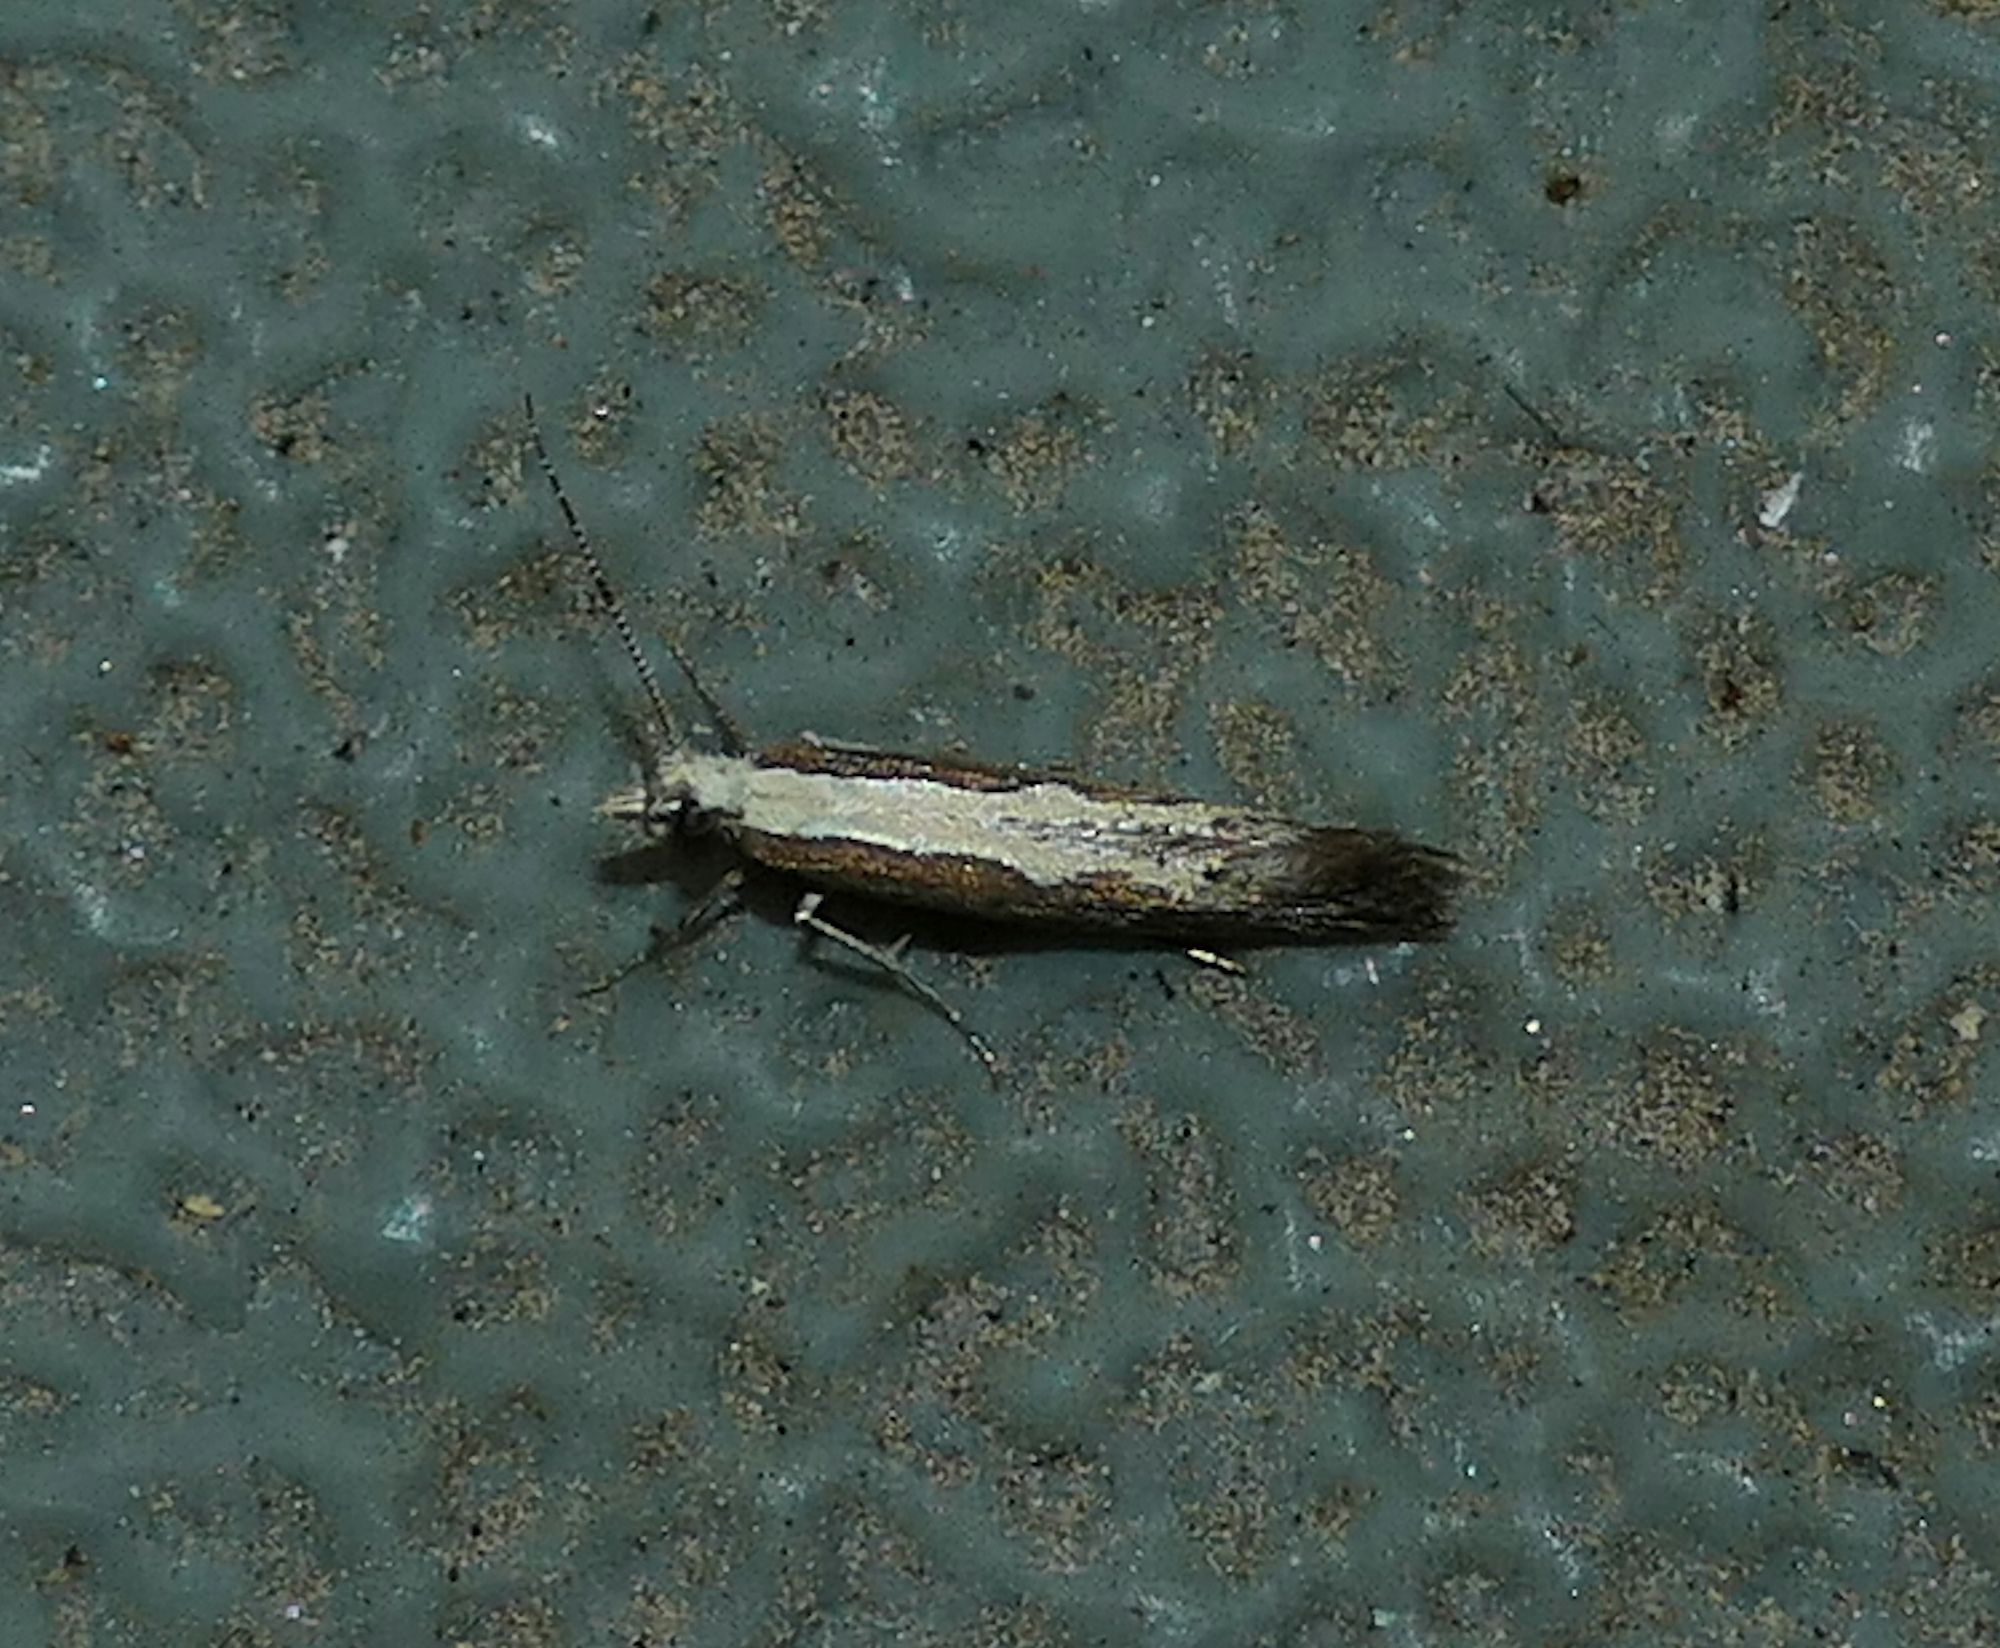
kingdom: Animalia
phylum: Arthropoda
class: Insecta
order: Lepidoptera
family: Plutellidae
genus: Plutella
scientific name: Plutella xylostella
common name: Diamond-back moth
